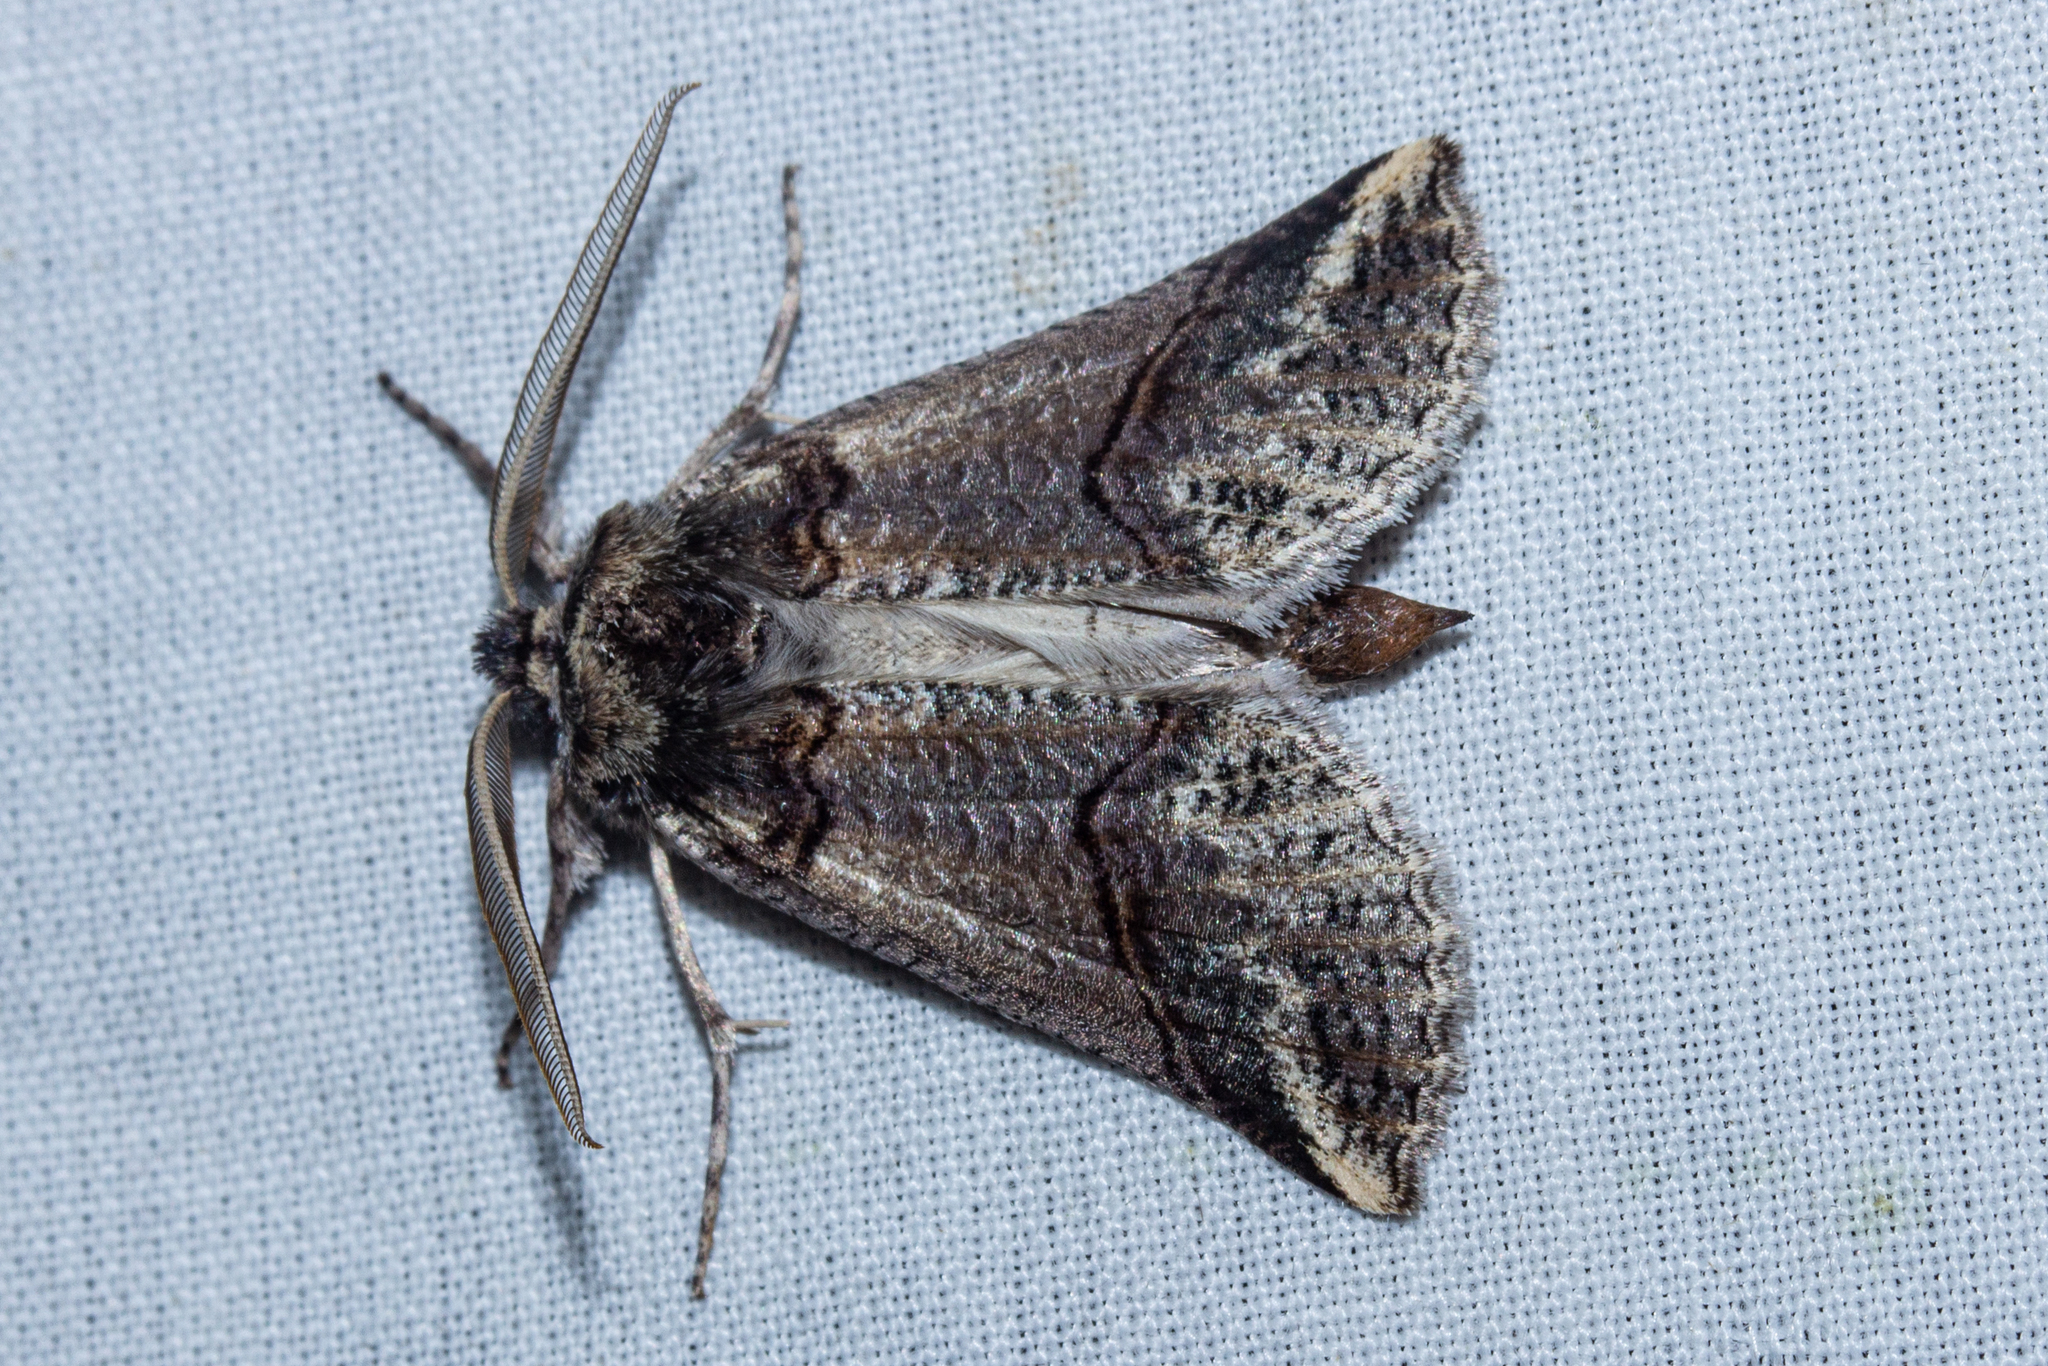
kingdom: Animalia
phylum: Arthropoda
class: Insecta
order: Lepidoptera
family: Geometridae
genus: Declana
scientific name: Declana
